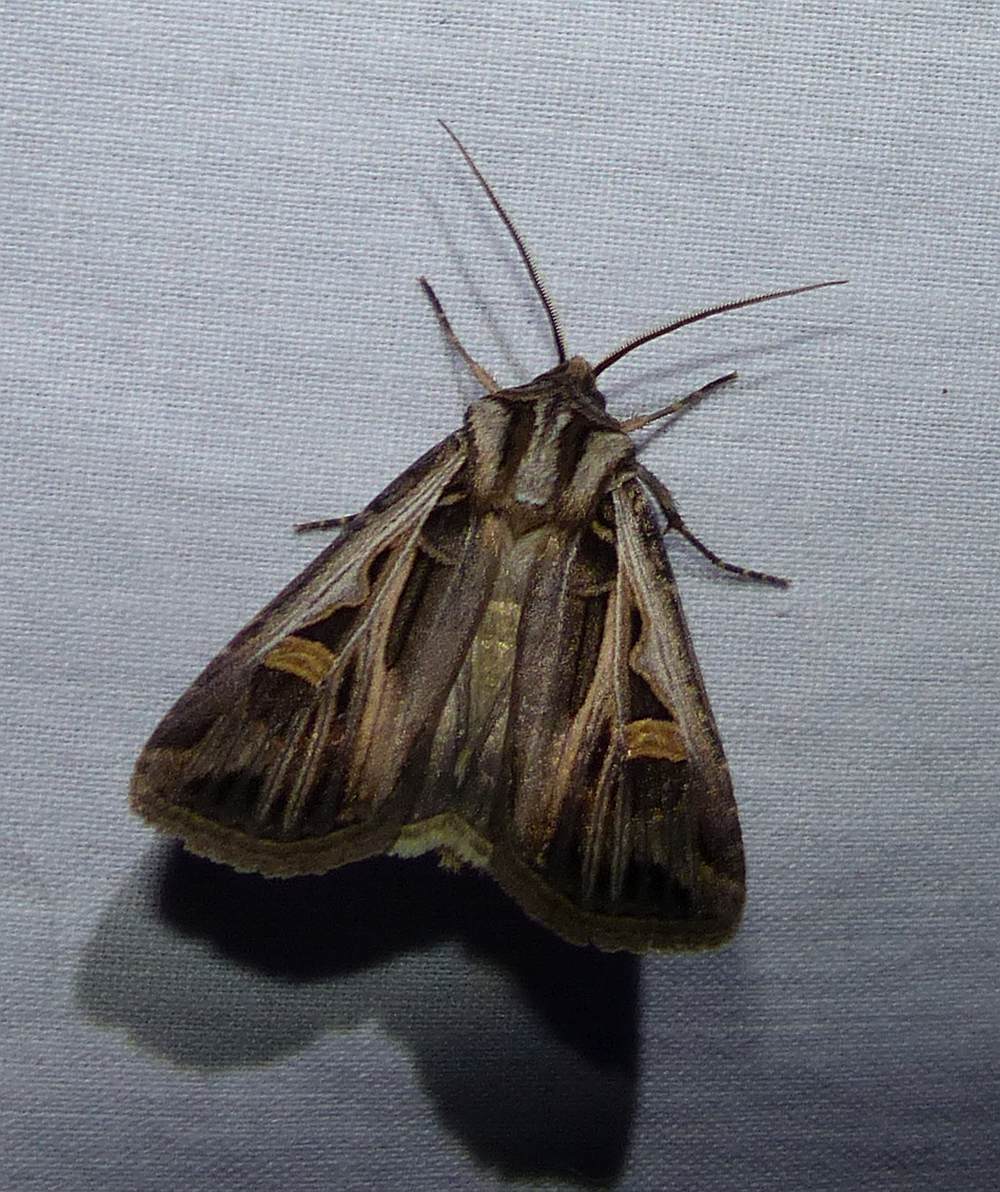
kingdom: Animalia
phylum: Arthropoda
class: Insecta
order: Lepidoptera
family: Noctuidae
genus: Feltia
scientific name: Feltia jaculifera
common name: Dingy cutworm moth
